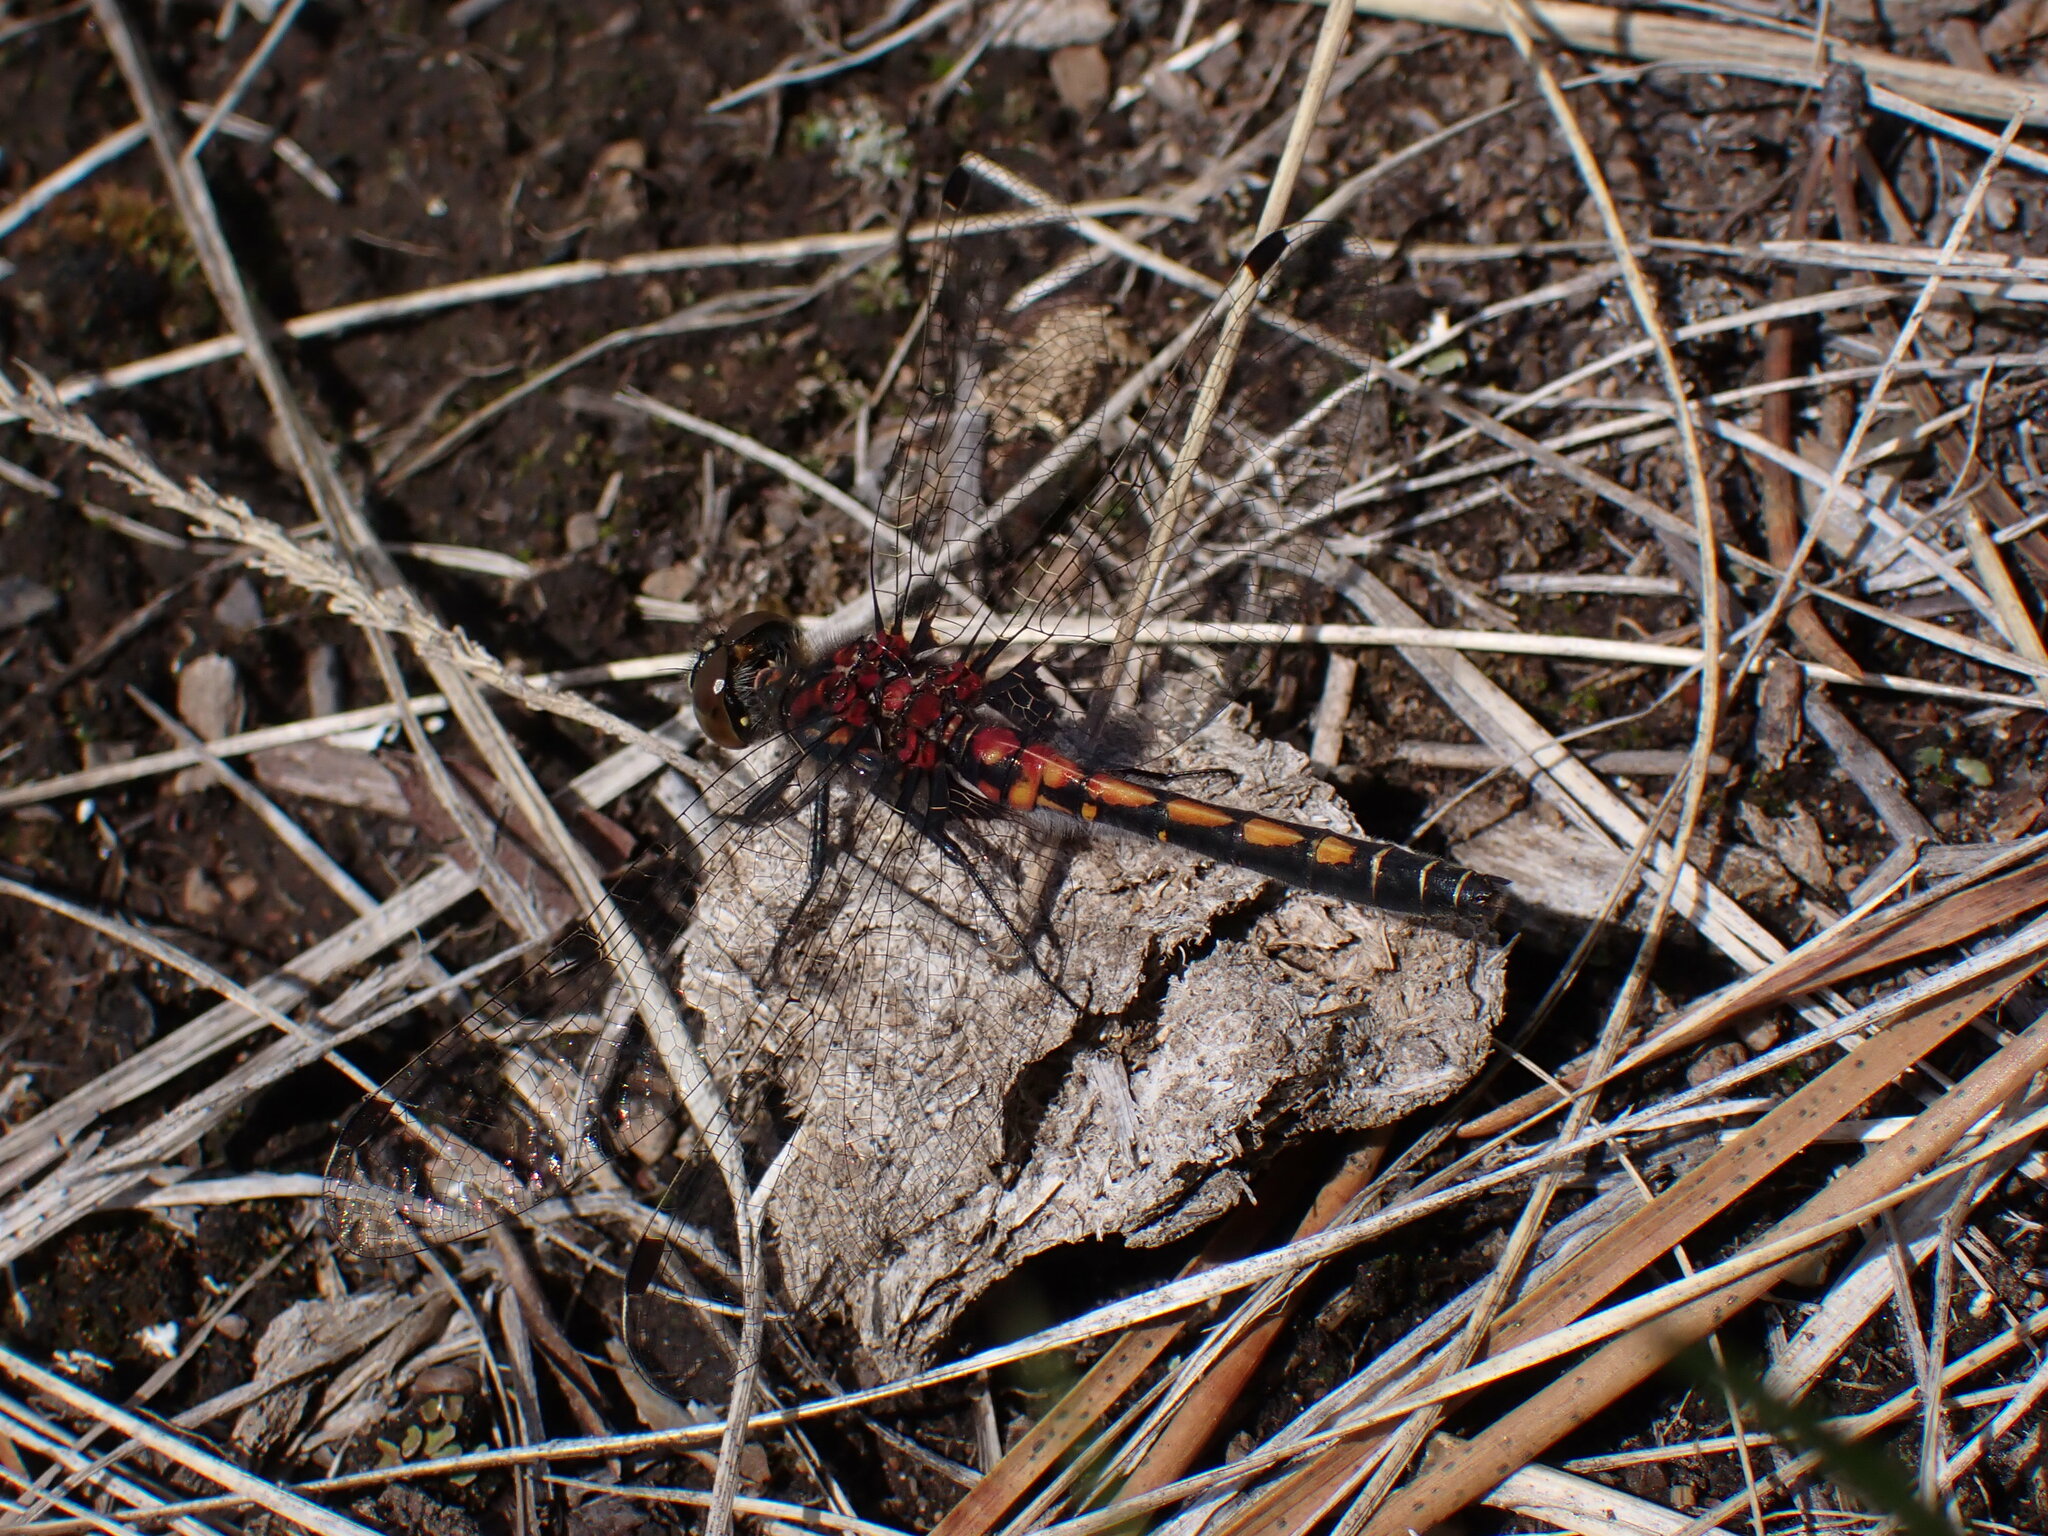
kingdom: Animalia
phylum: Arthropoda
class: Insecta
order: Odonata
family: Libellulidae
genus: Leucorrhinia
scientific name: Leucorrhinia hudsonica
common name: Hudsonian whiteface
